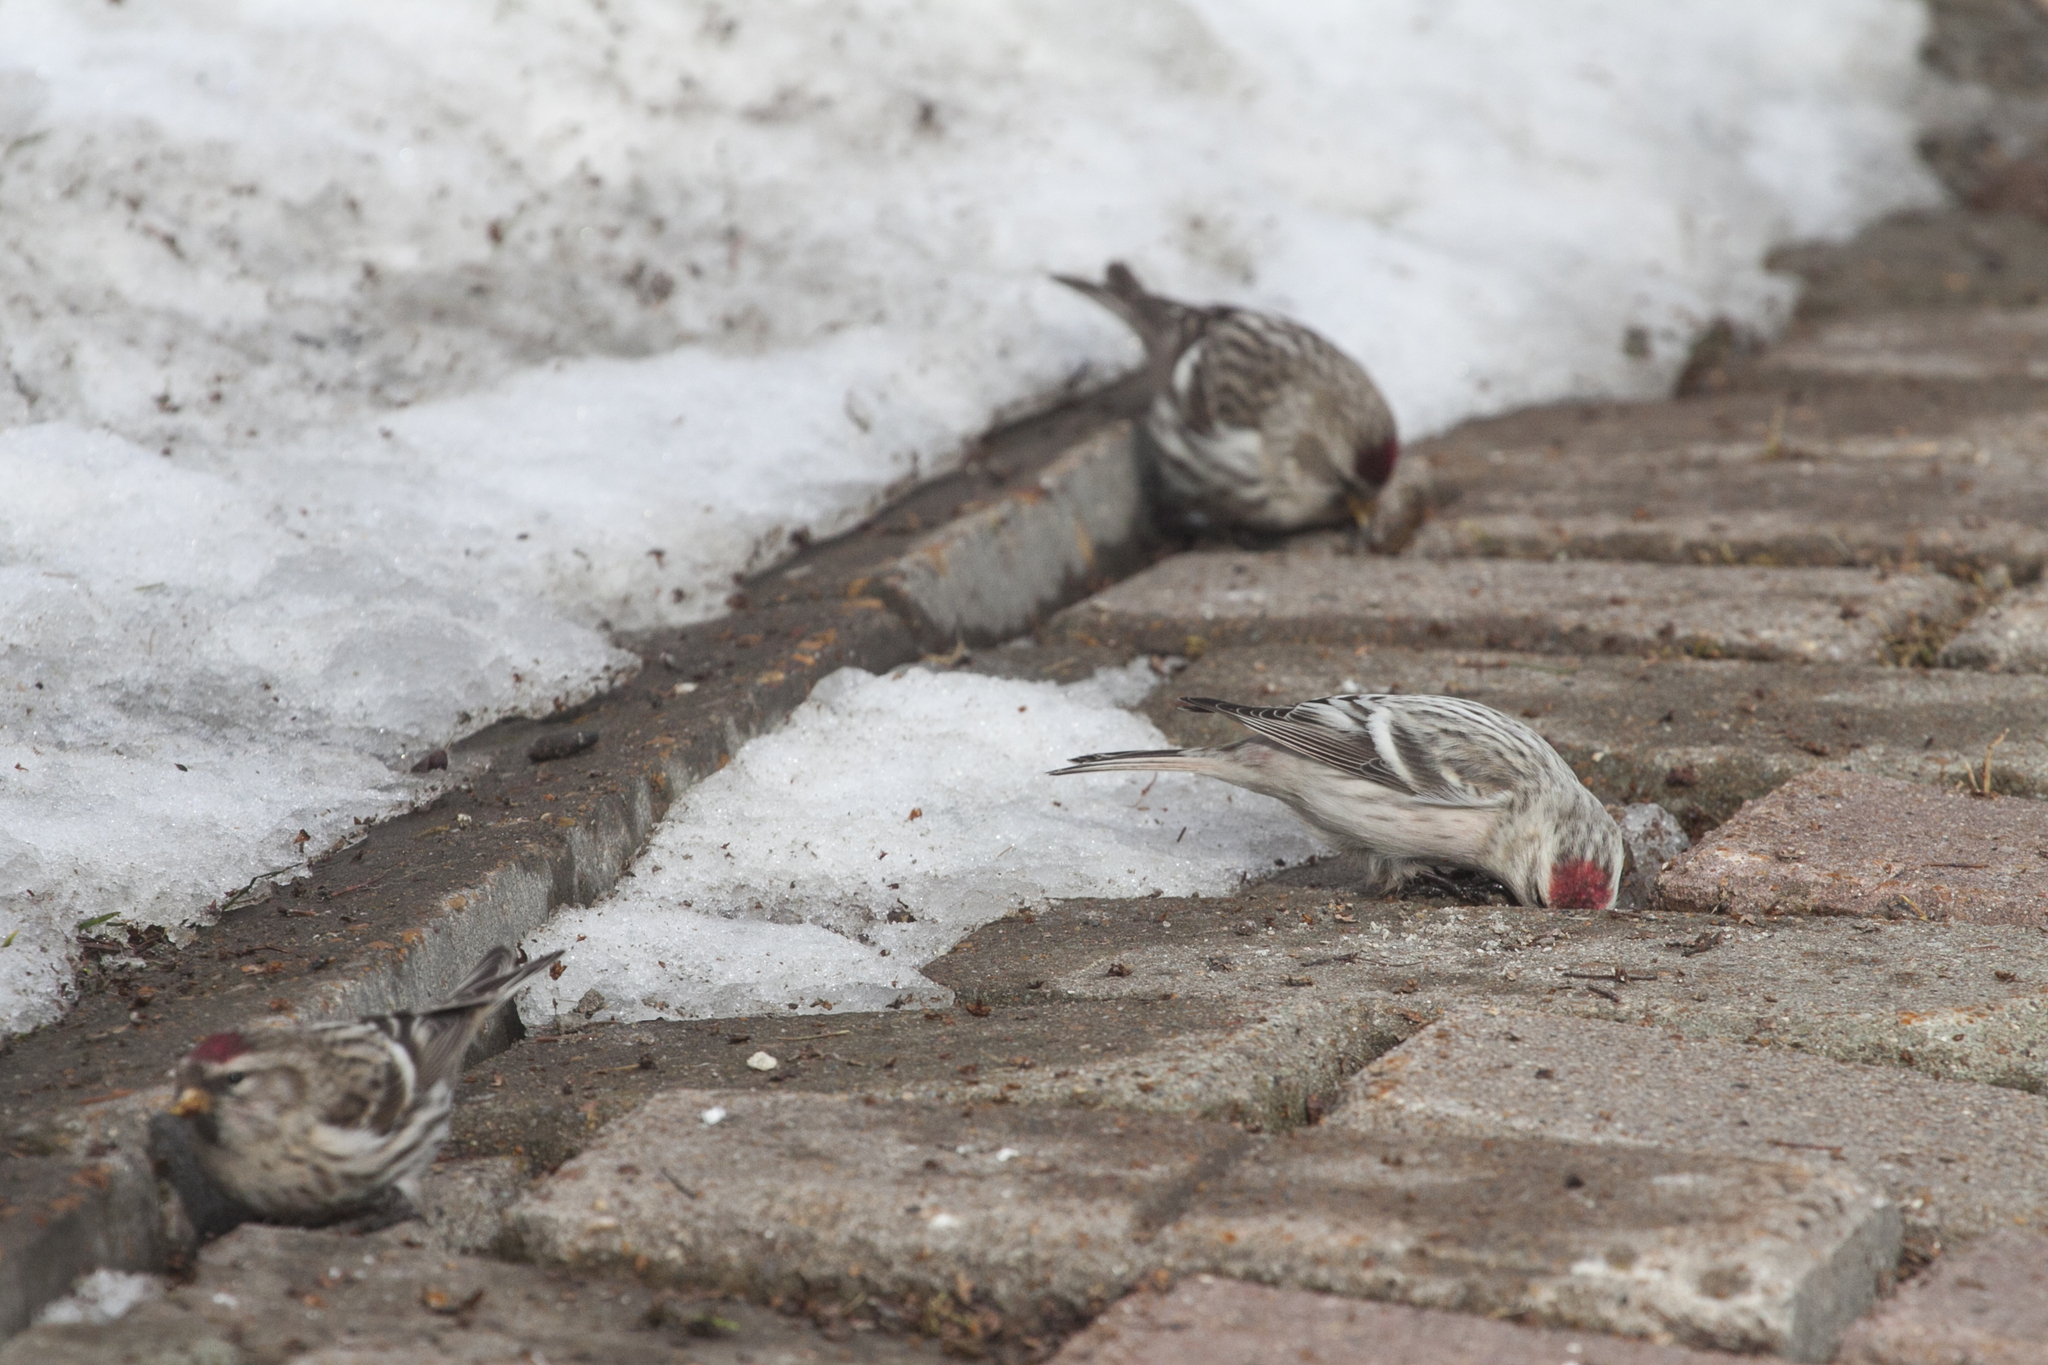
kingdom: Animalia
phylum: Chordata
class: Aves
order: Passeriformes
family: Fringillidae
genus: Acanthis
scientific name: Acanthis hornemanni
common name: Arctic redpoll
